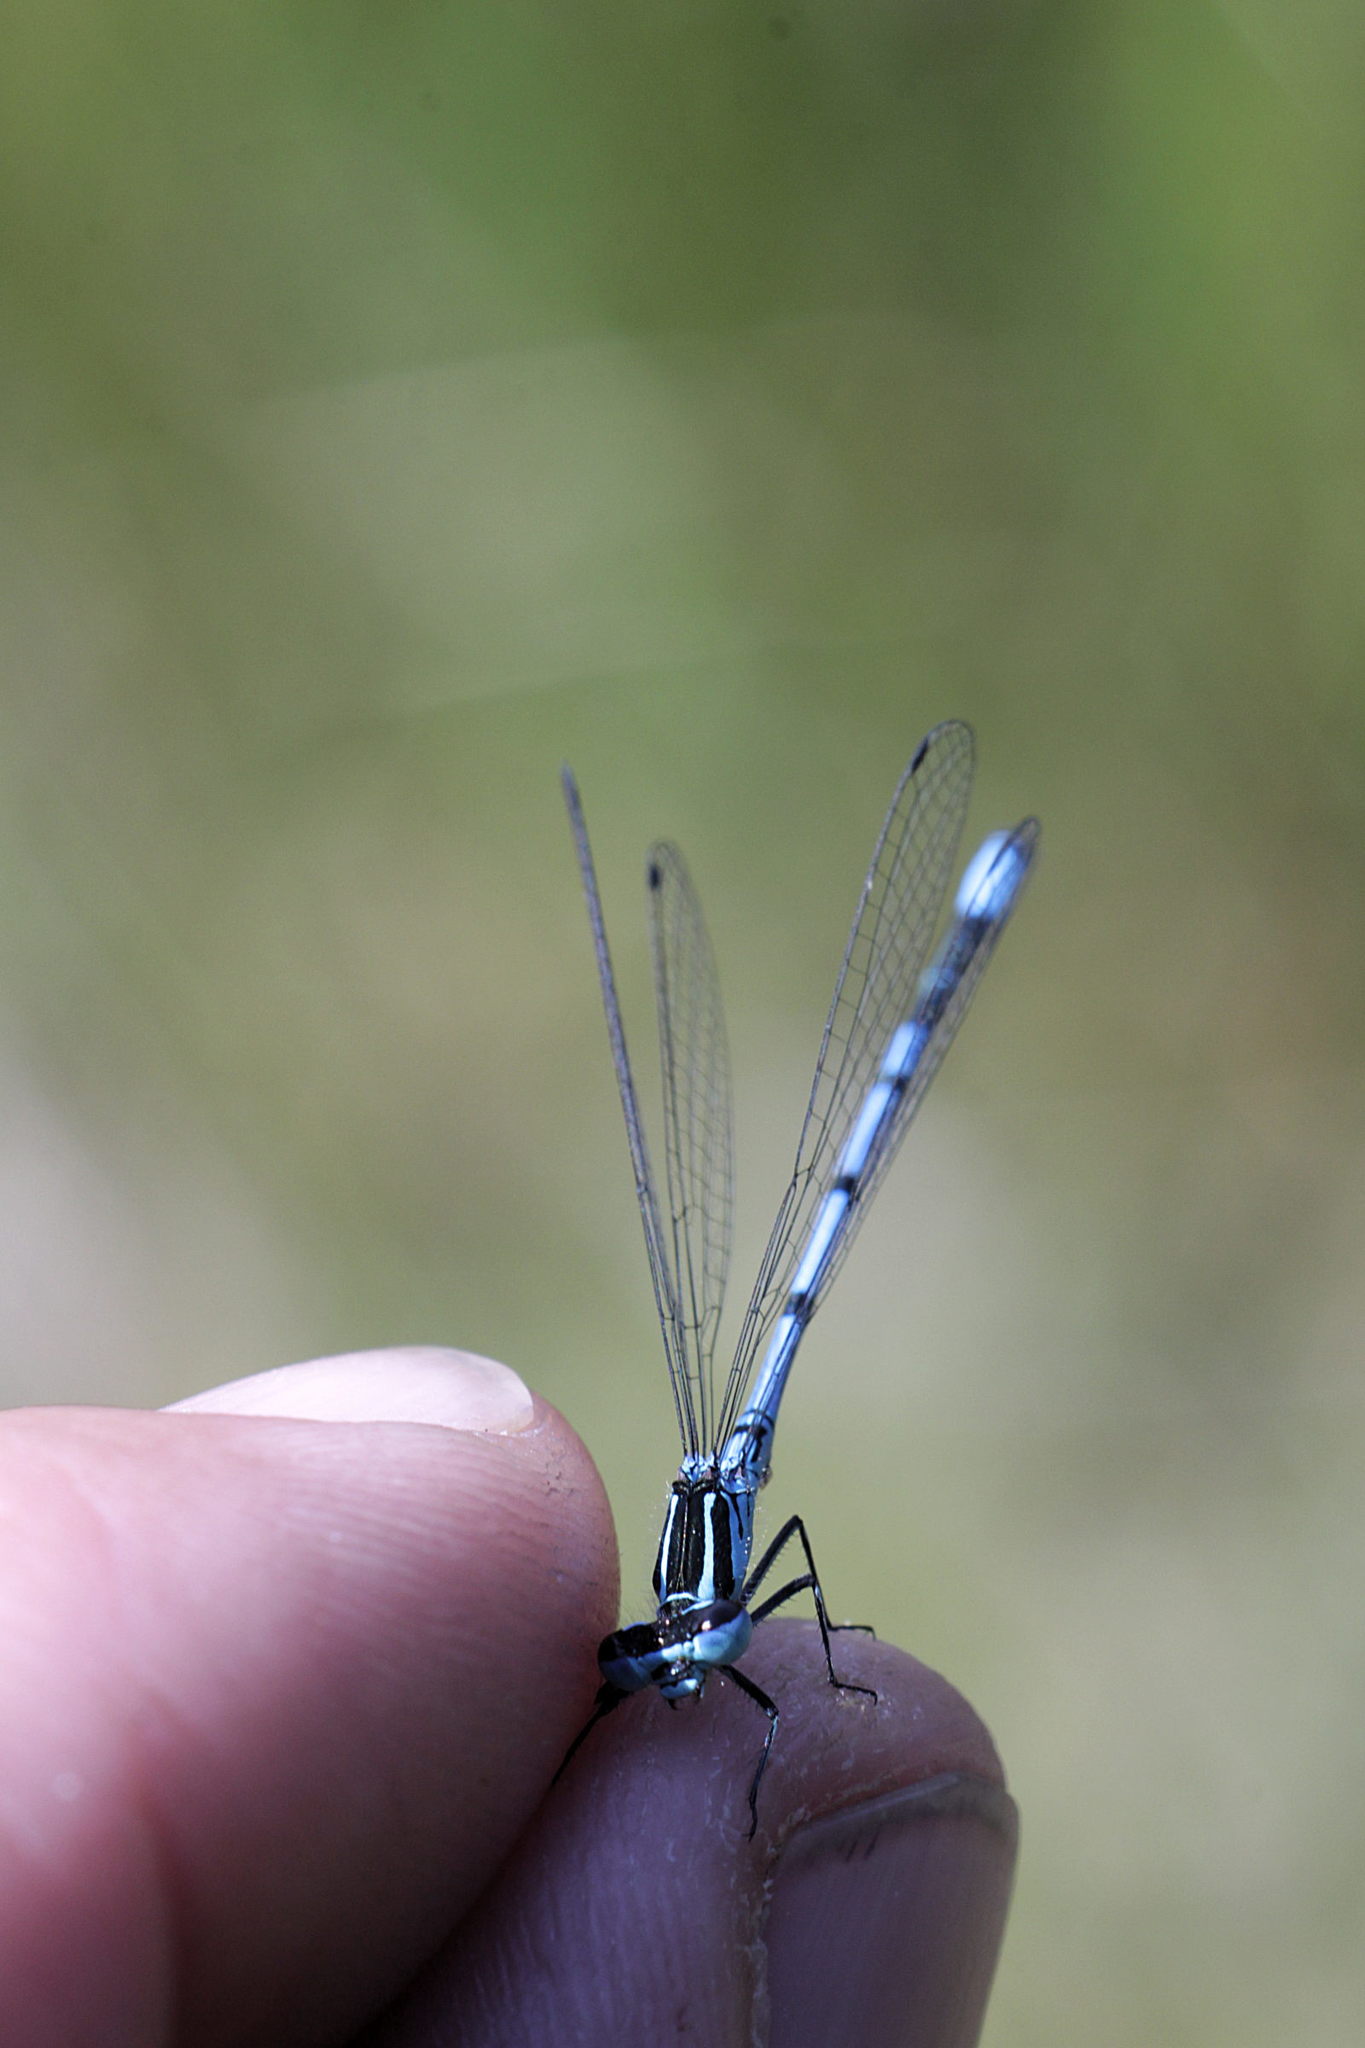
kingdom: Animalia
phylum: Arthropoda
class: Insecta
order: Odonata
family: Coenagrionidae
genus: Coenagrion
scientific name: Coenagrion puella
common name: Azure damselfly
